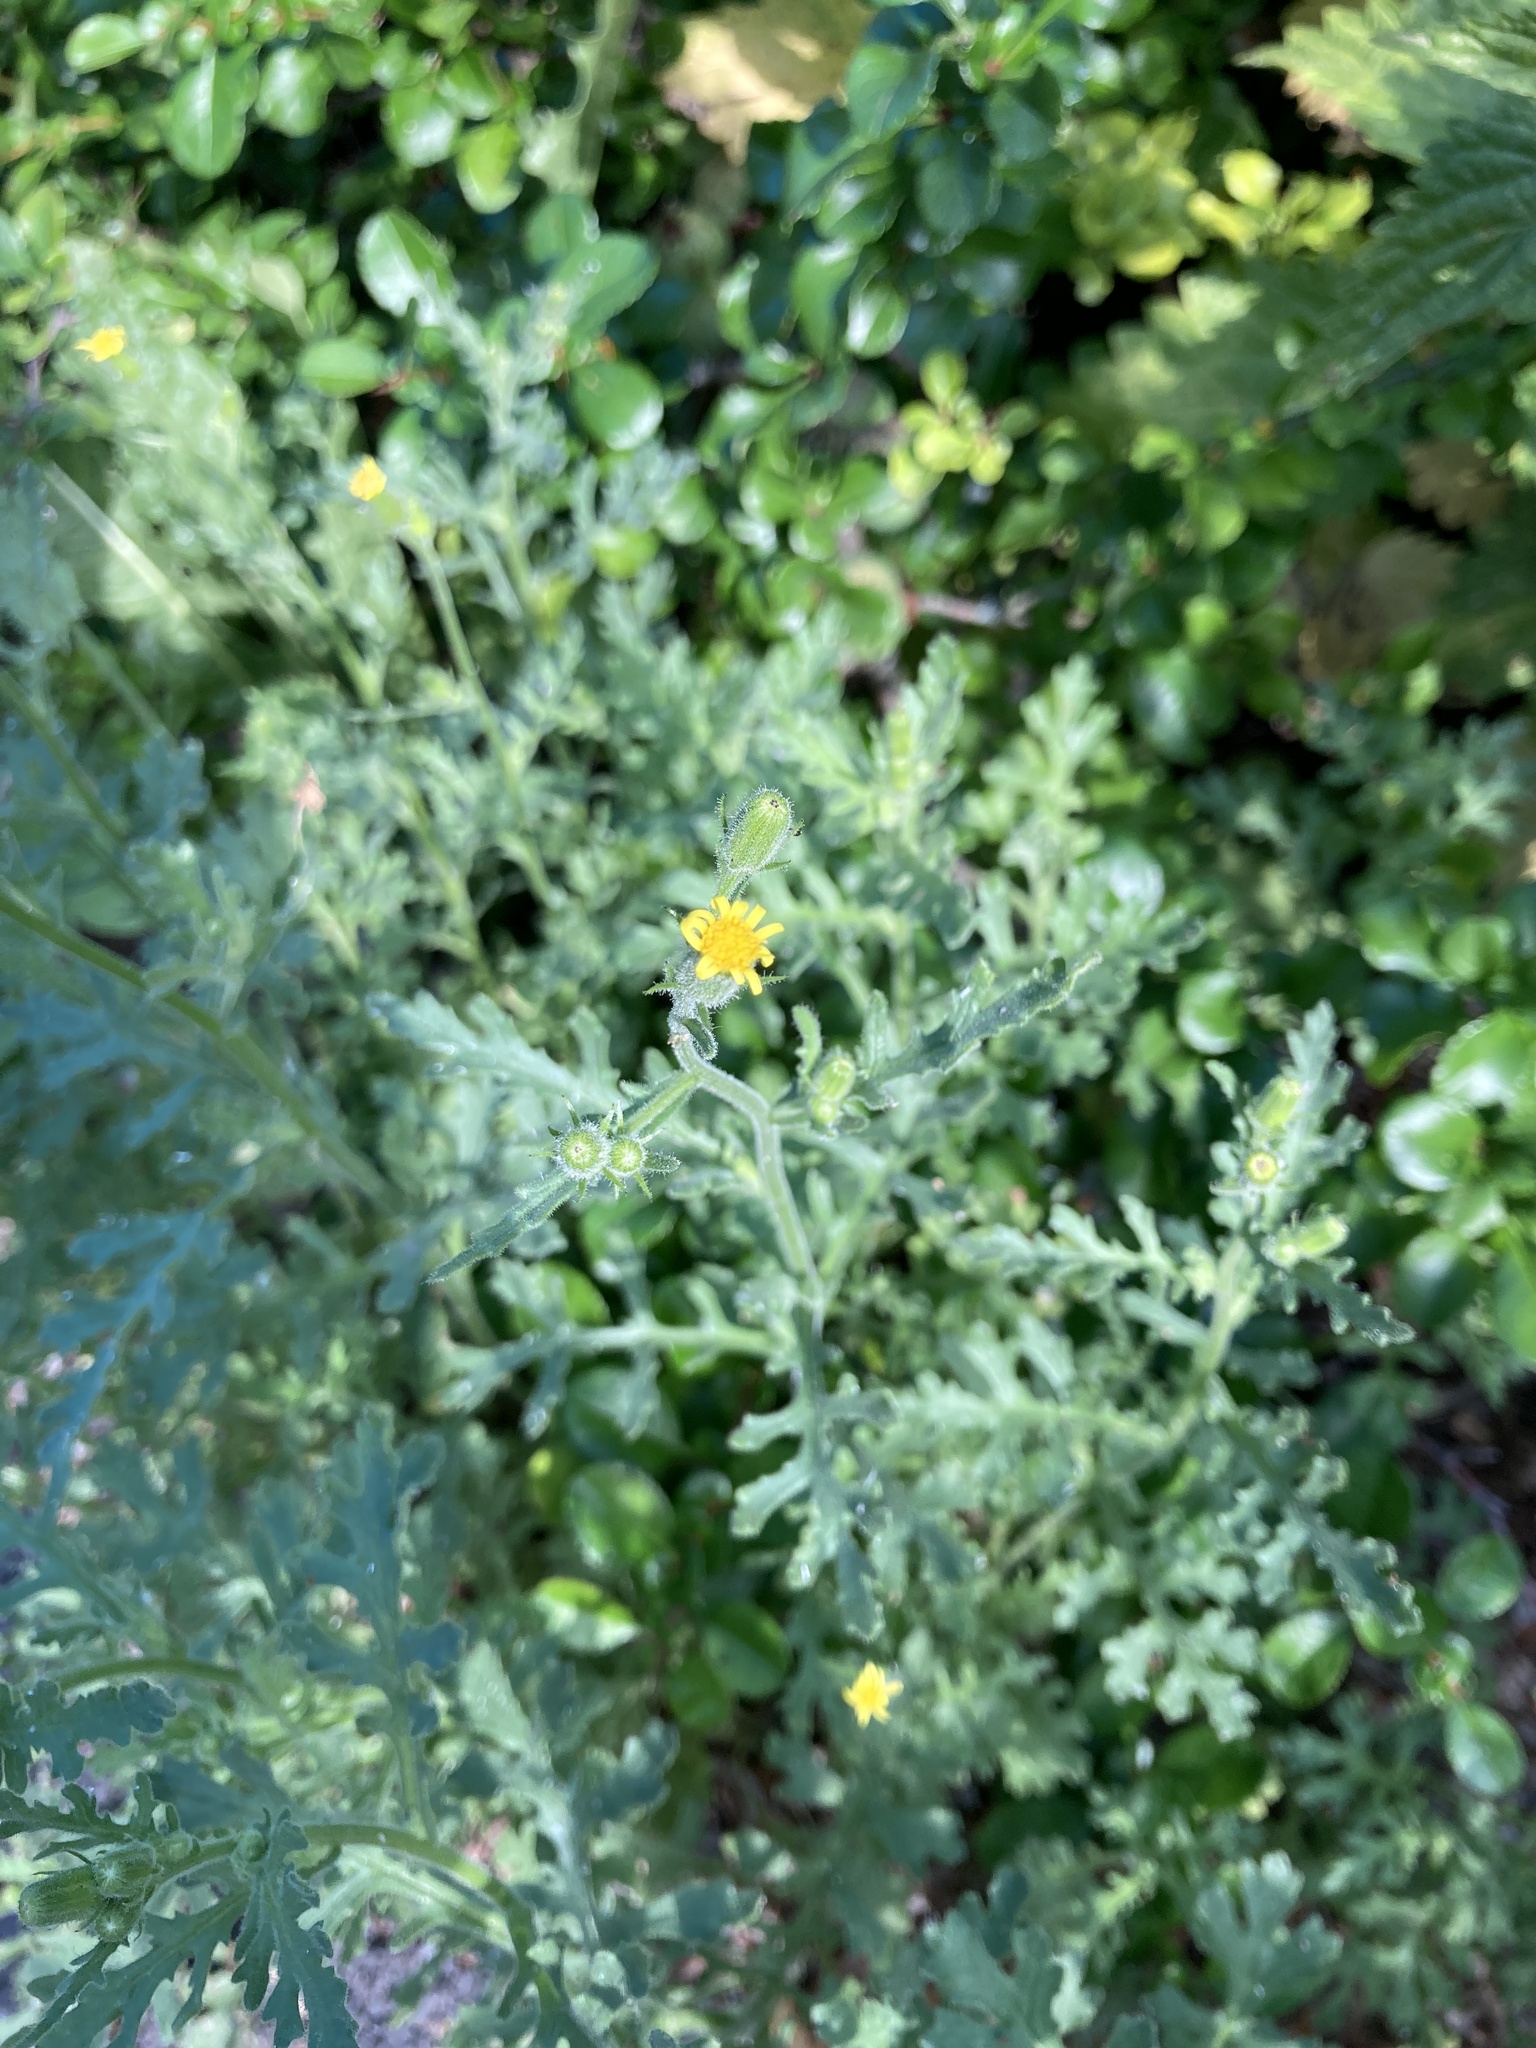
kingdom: Plantae
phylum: Tracheophyta
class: Magnoliopsida
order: Asterales
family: Asteraceae
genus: Senecio
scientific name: Senecio viscosus
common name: Sticky groundsel
